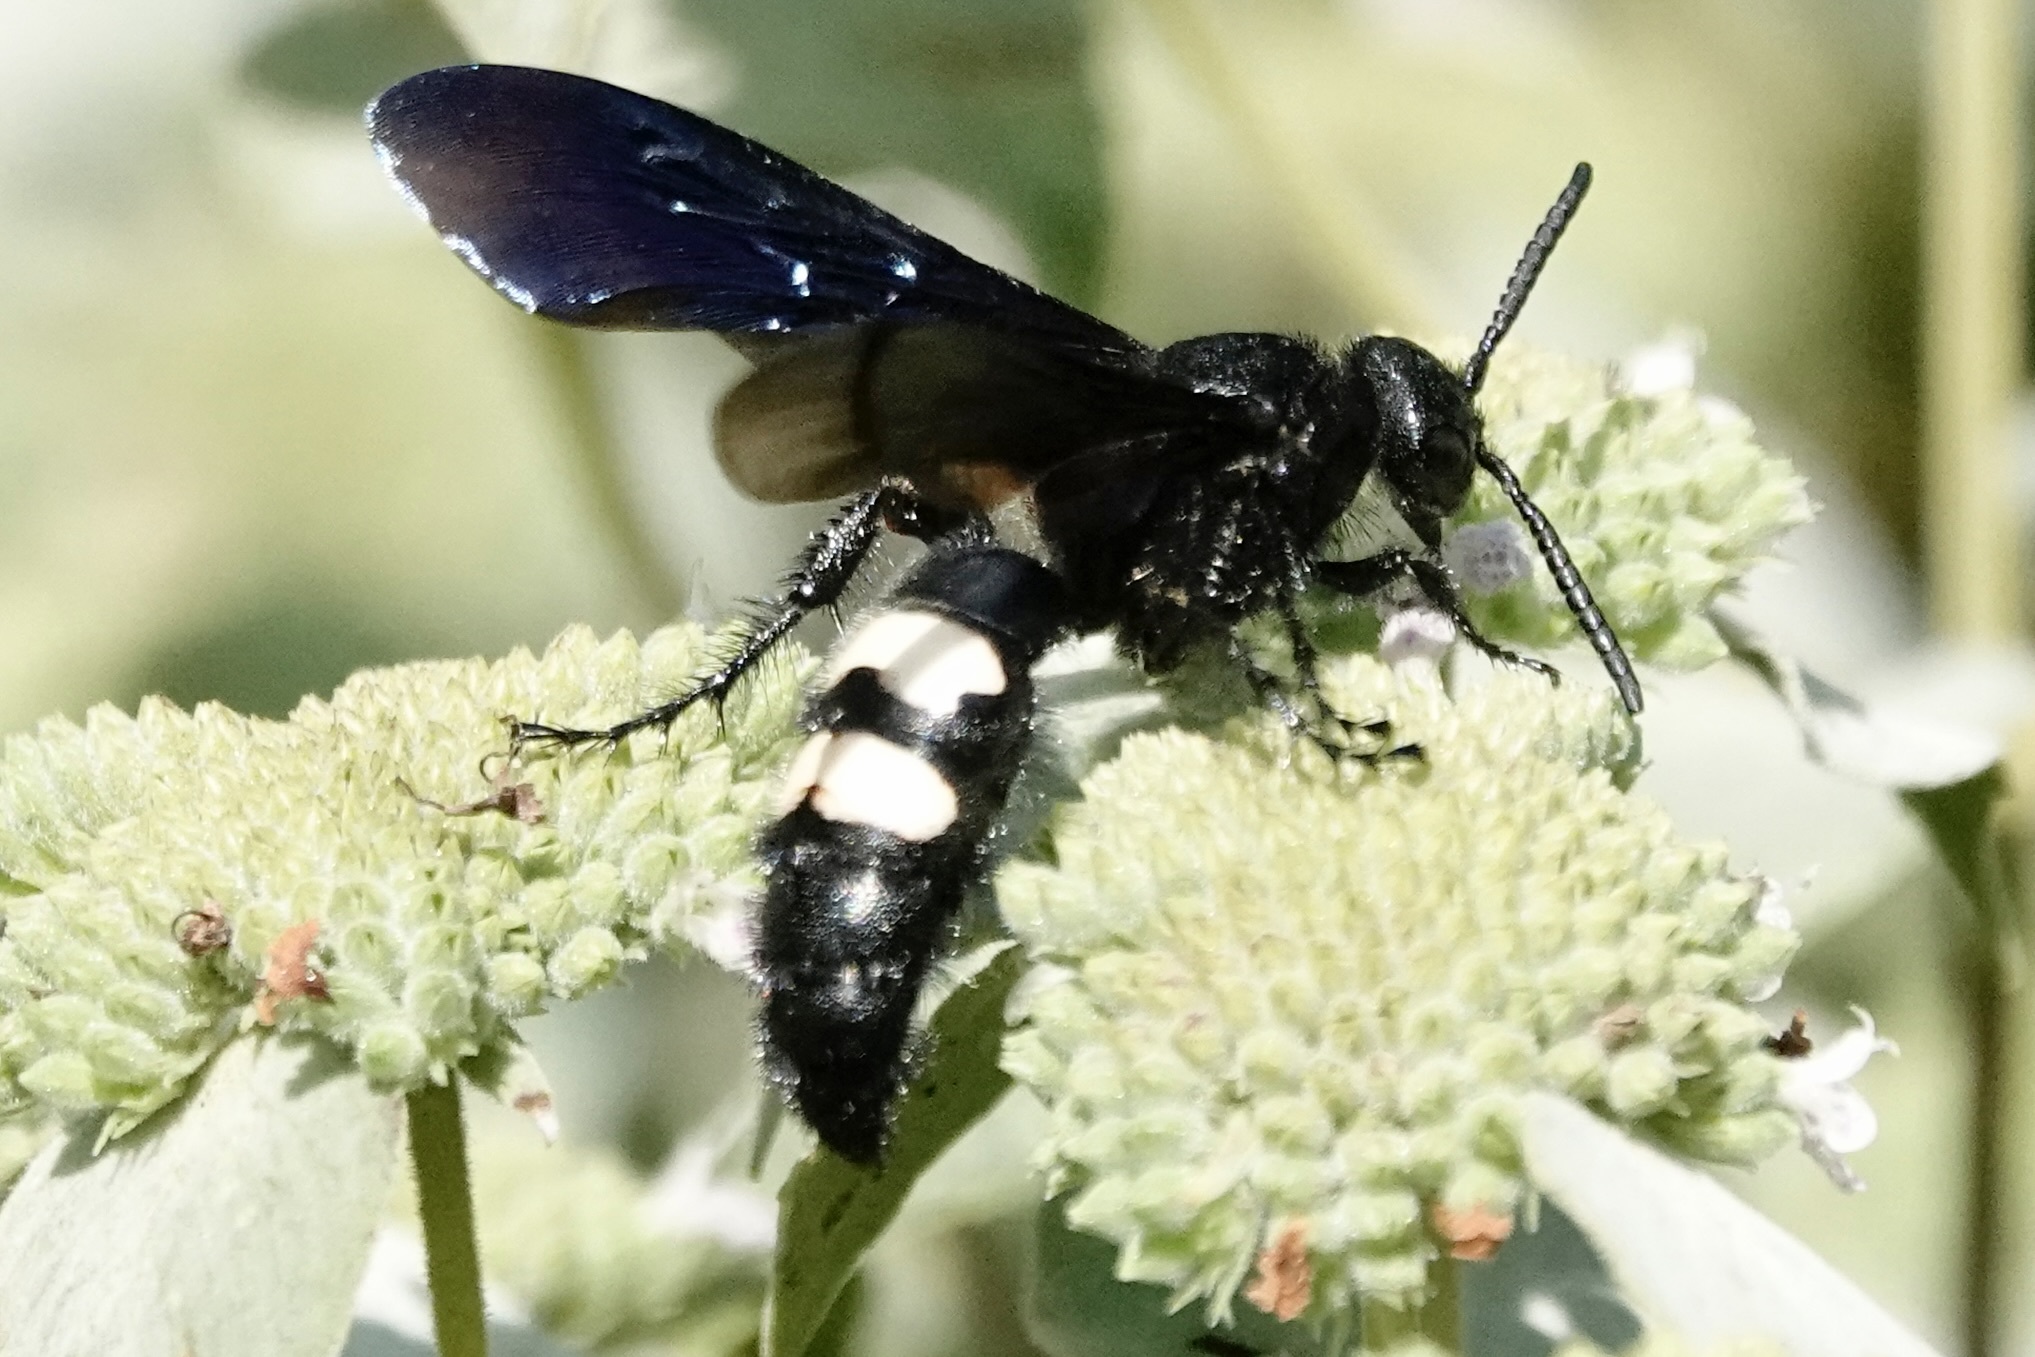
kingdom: Animalia
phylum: Arthropoda
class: Insecta
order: Hymenoptera
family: Scoliidae
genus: Scolia
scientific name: Scolia bicincta
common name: Double-banded scoliid wasp
